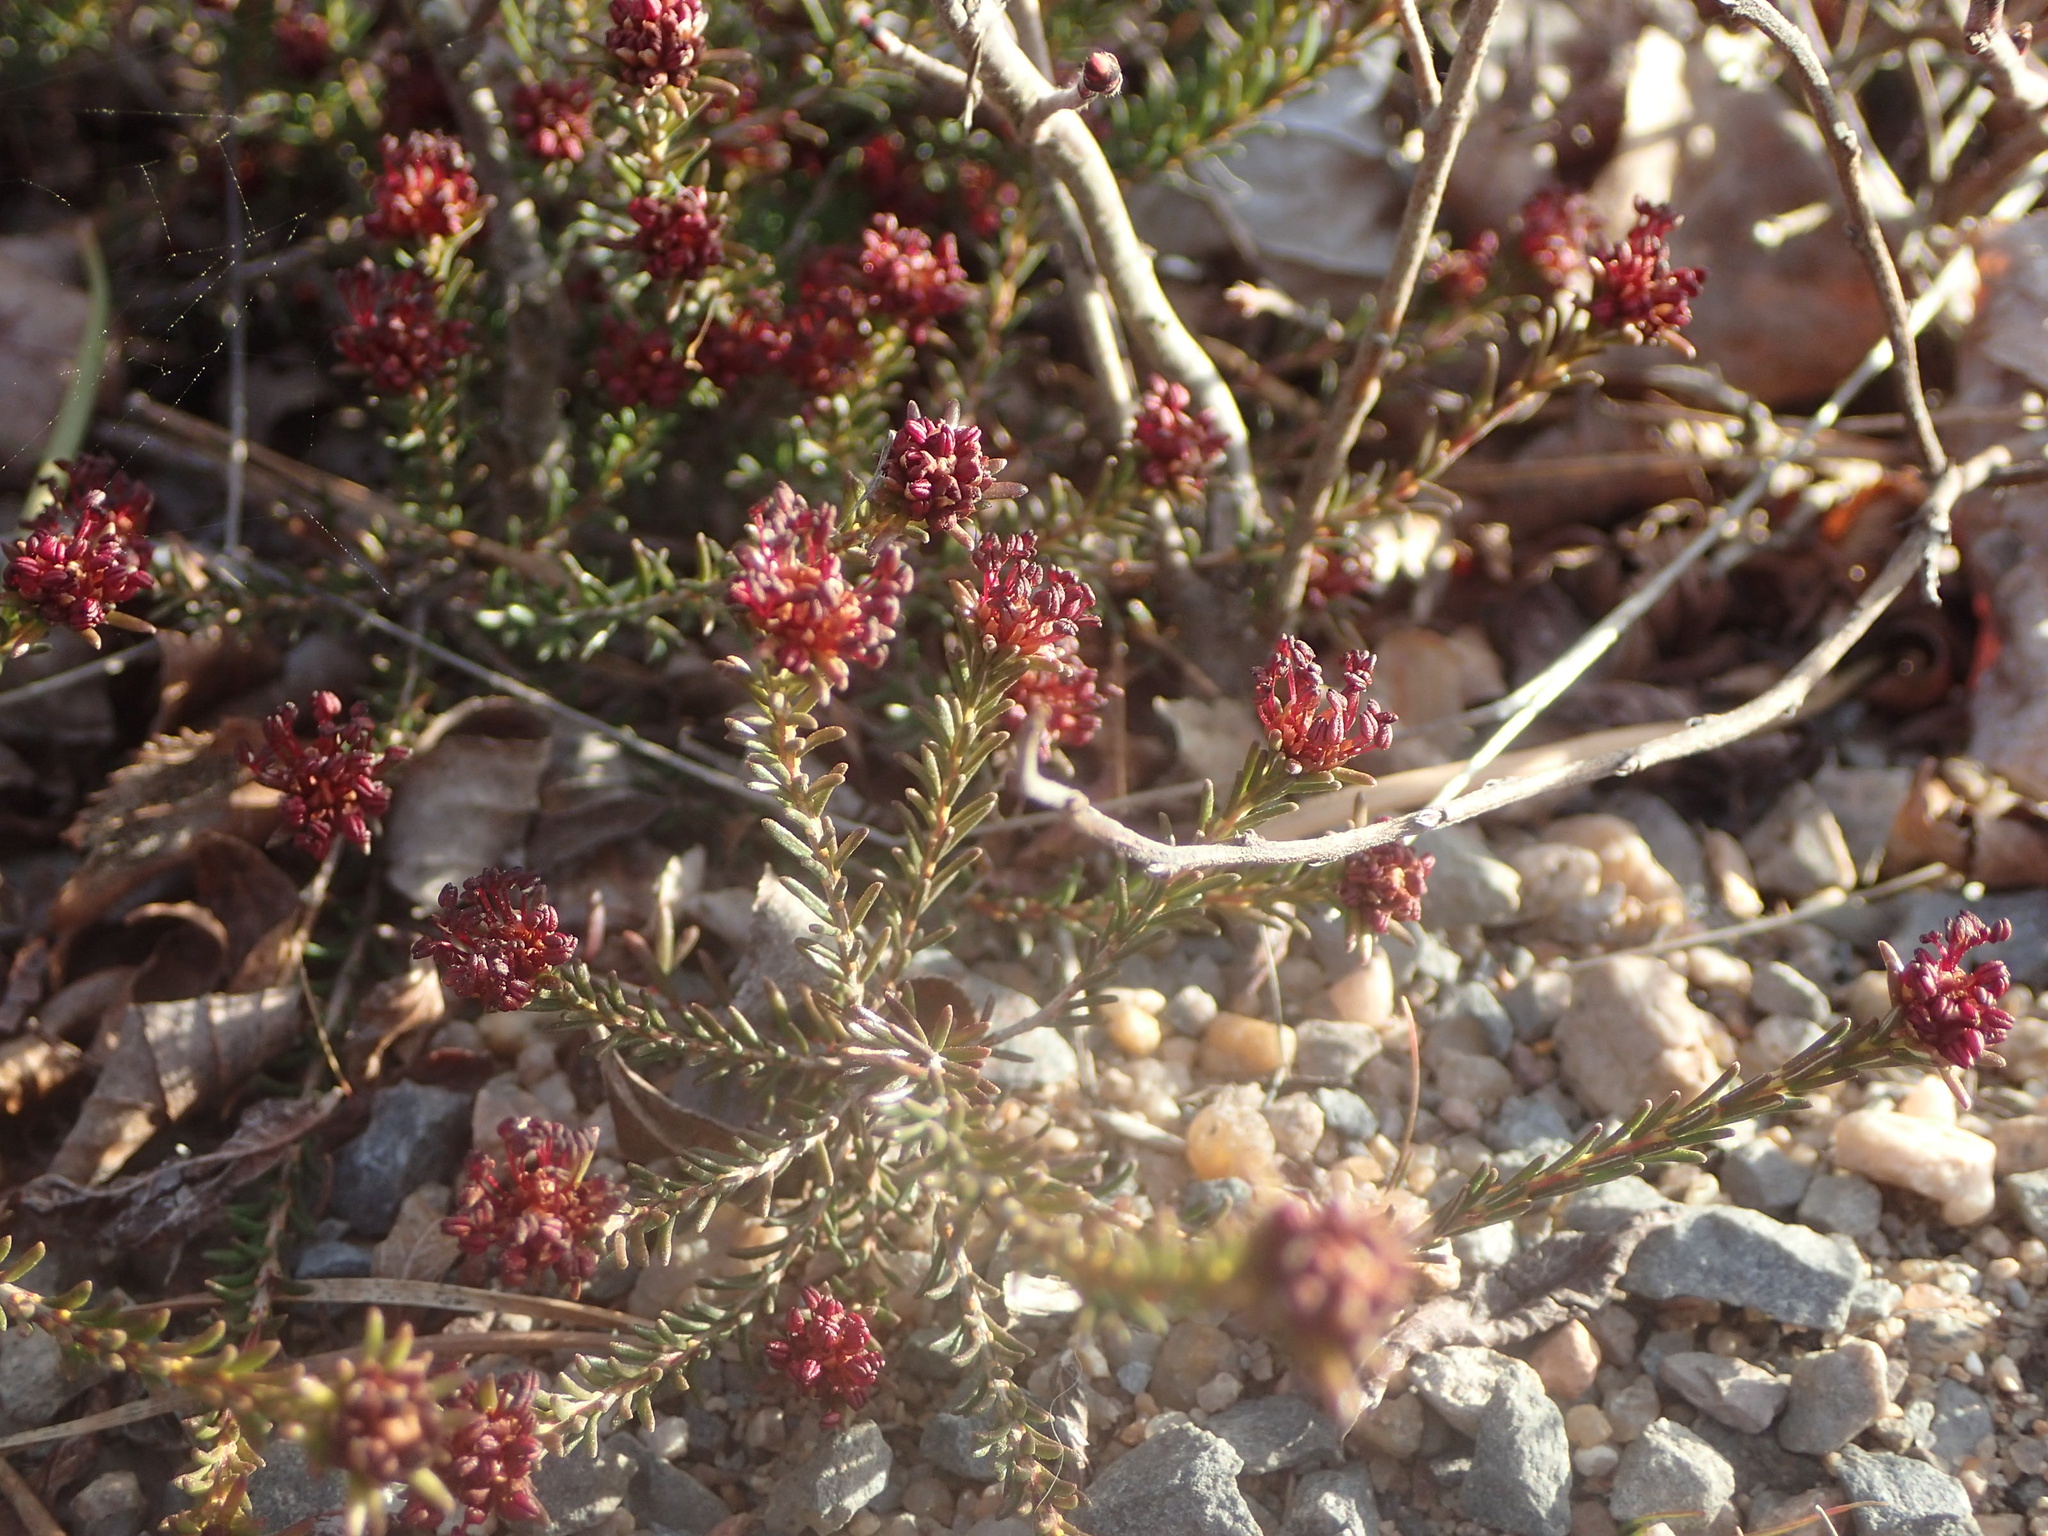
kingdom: Plantae
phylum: Tracheophyta
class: Magnoliopsida
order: Ericales
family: Ericaceae
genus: Corema
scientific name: Corema conradii
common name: Broom-crowberry
